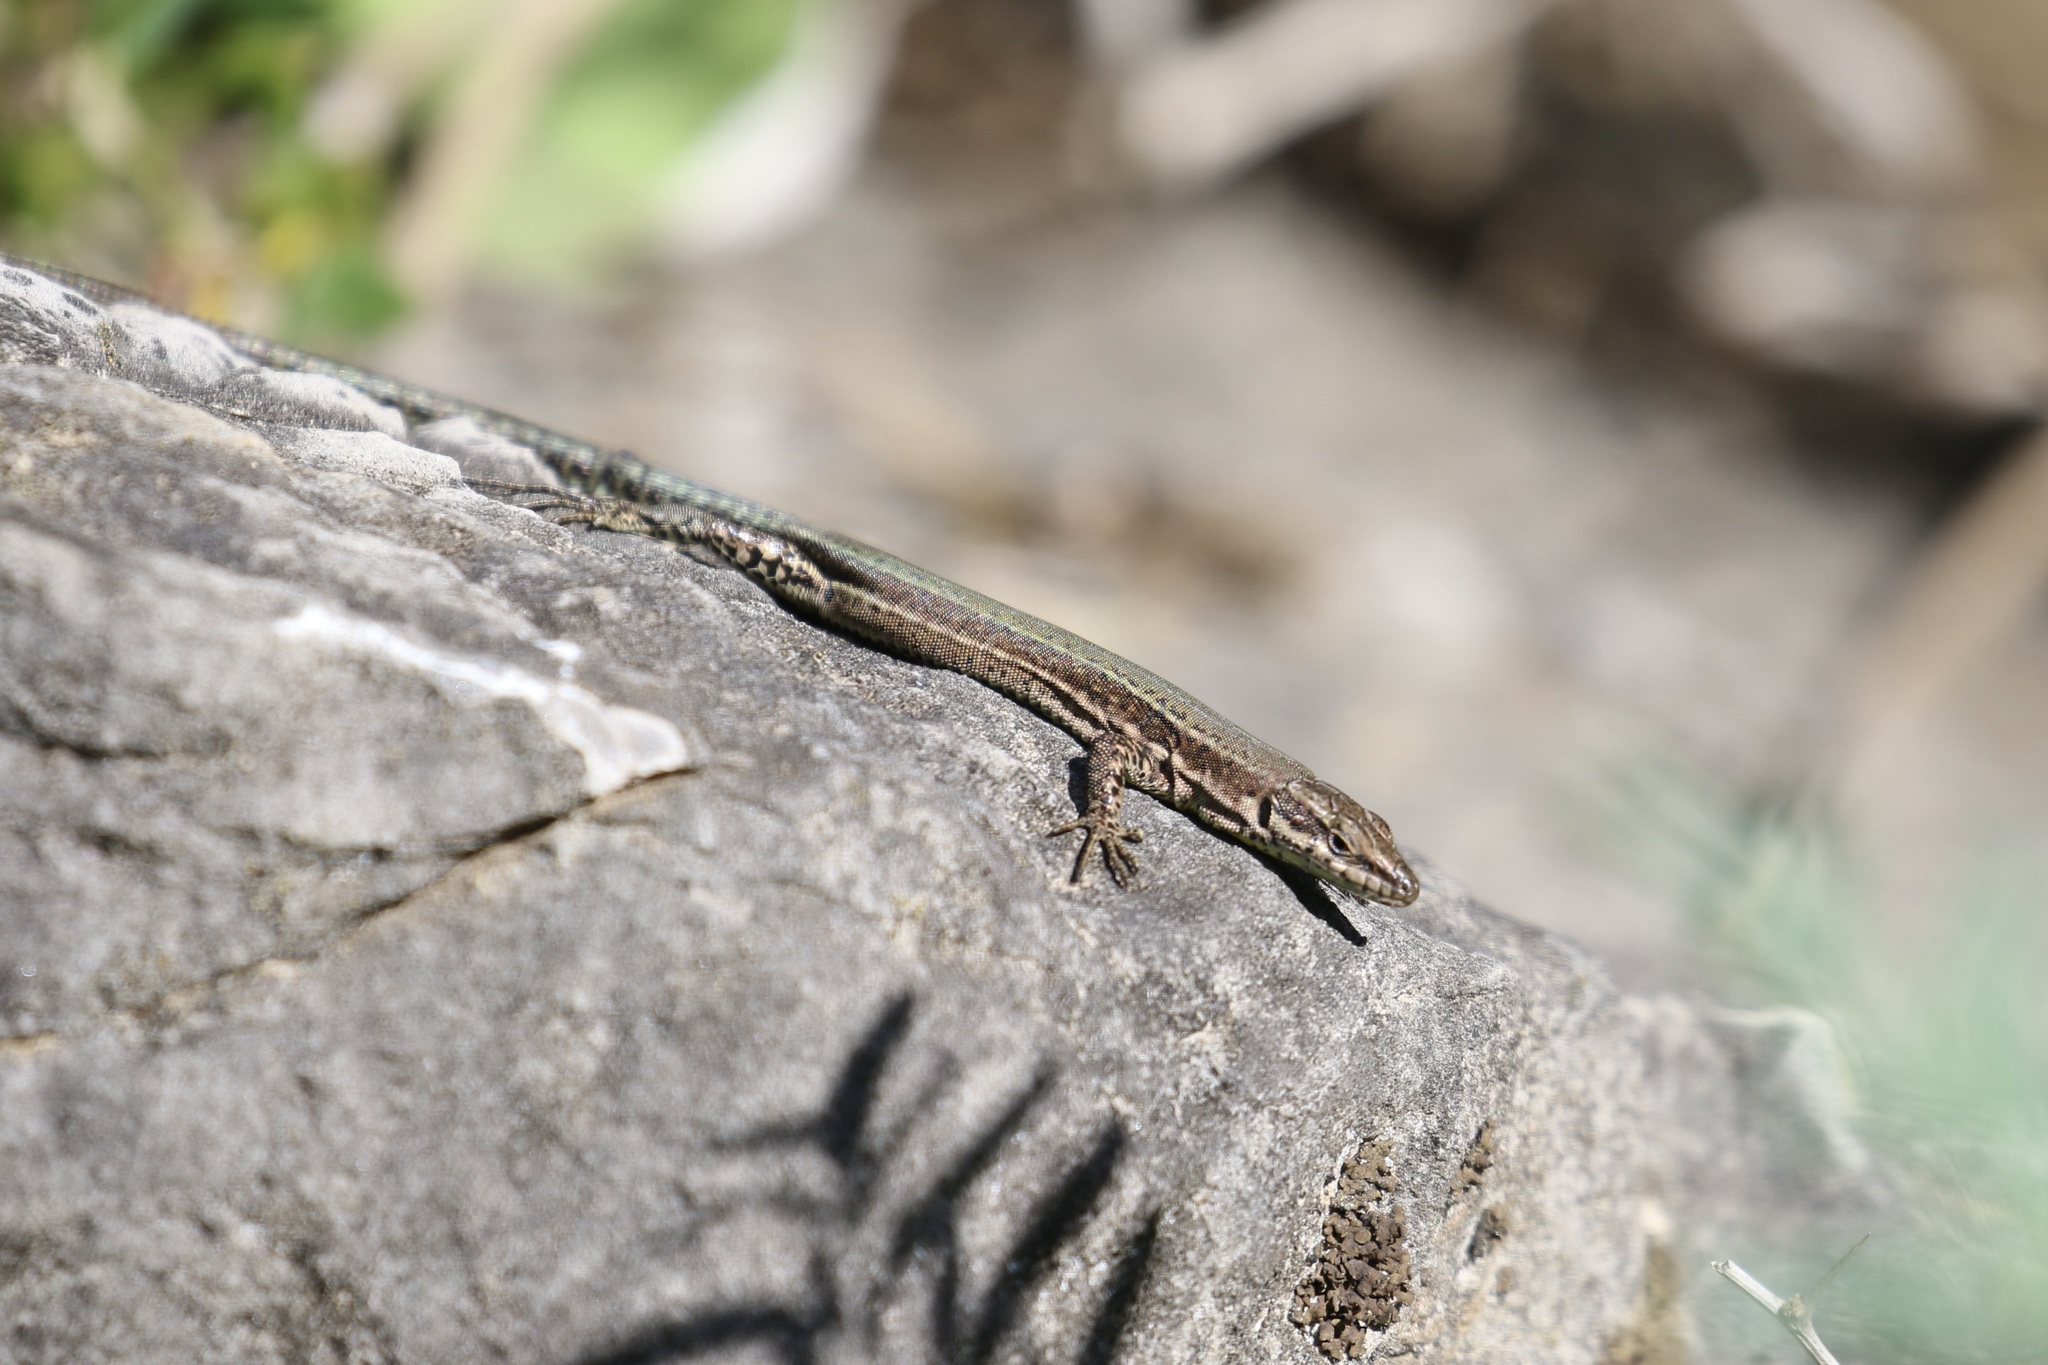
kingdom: Animalia
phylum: Chordata
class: Squamata
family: Lacertidae
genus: Podarcis
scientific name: Podarcis vaucheri
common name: Vaucher's wall lizard
